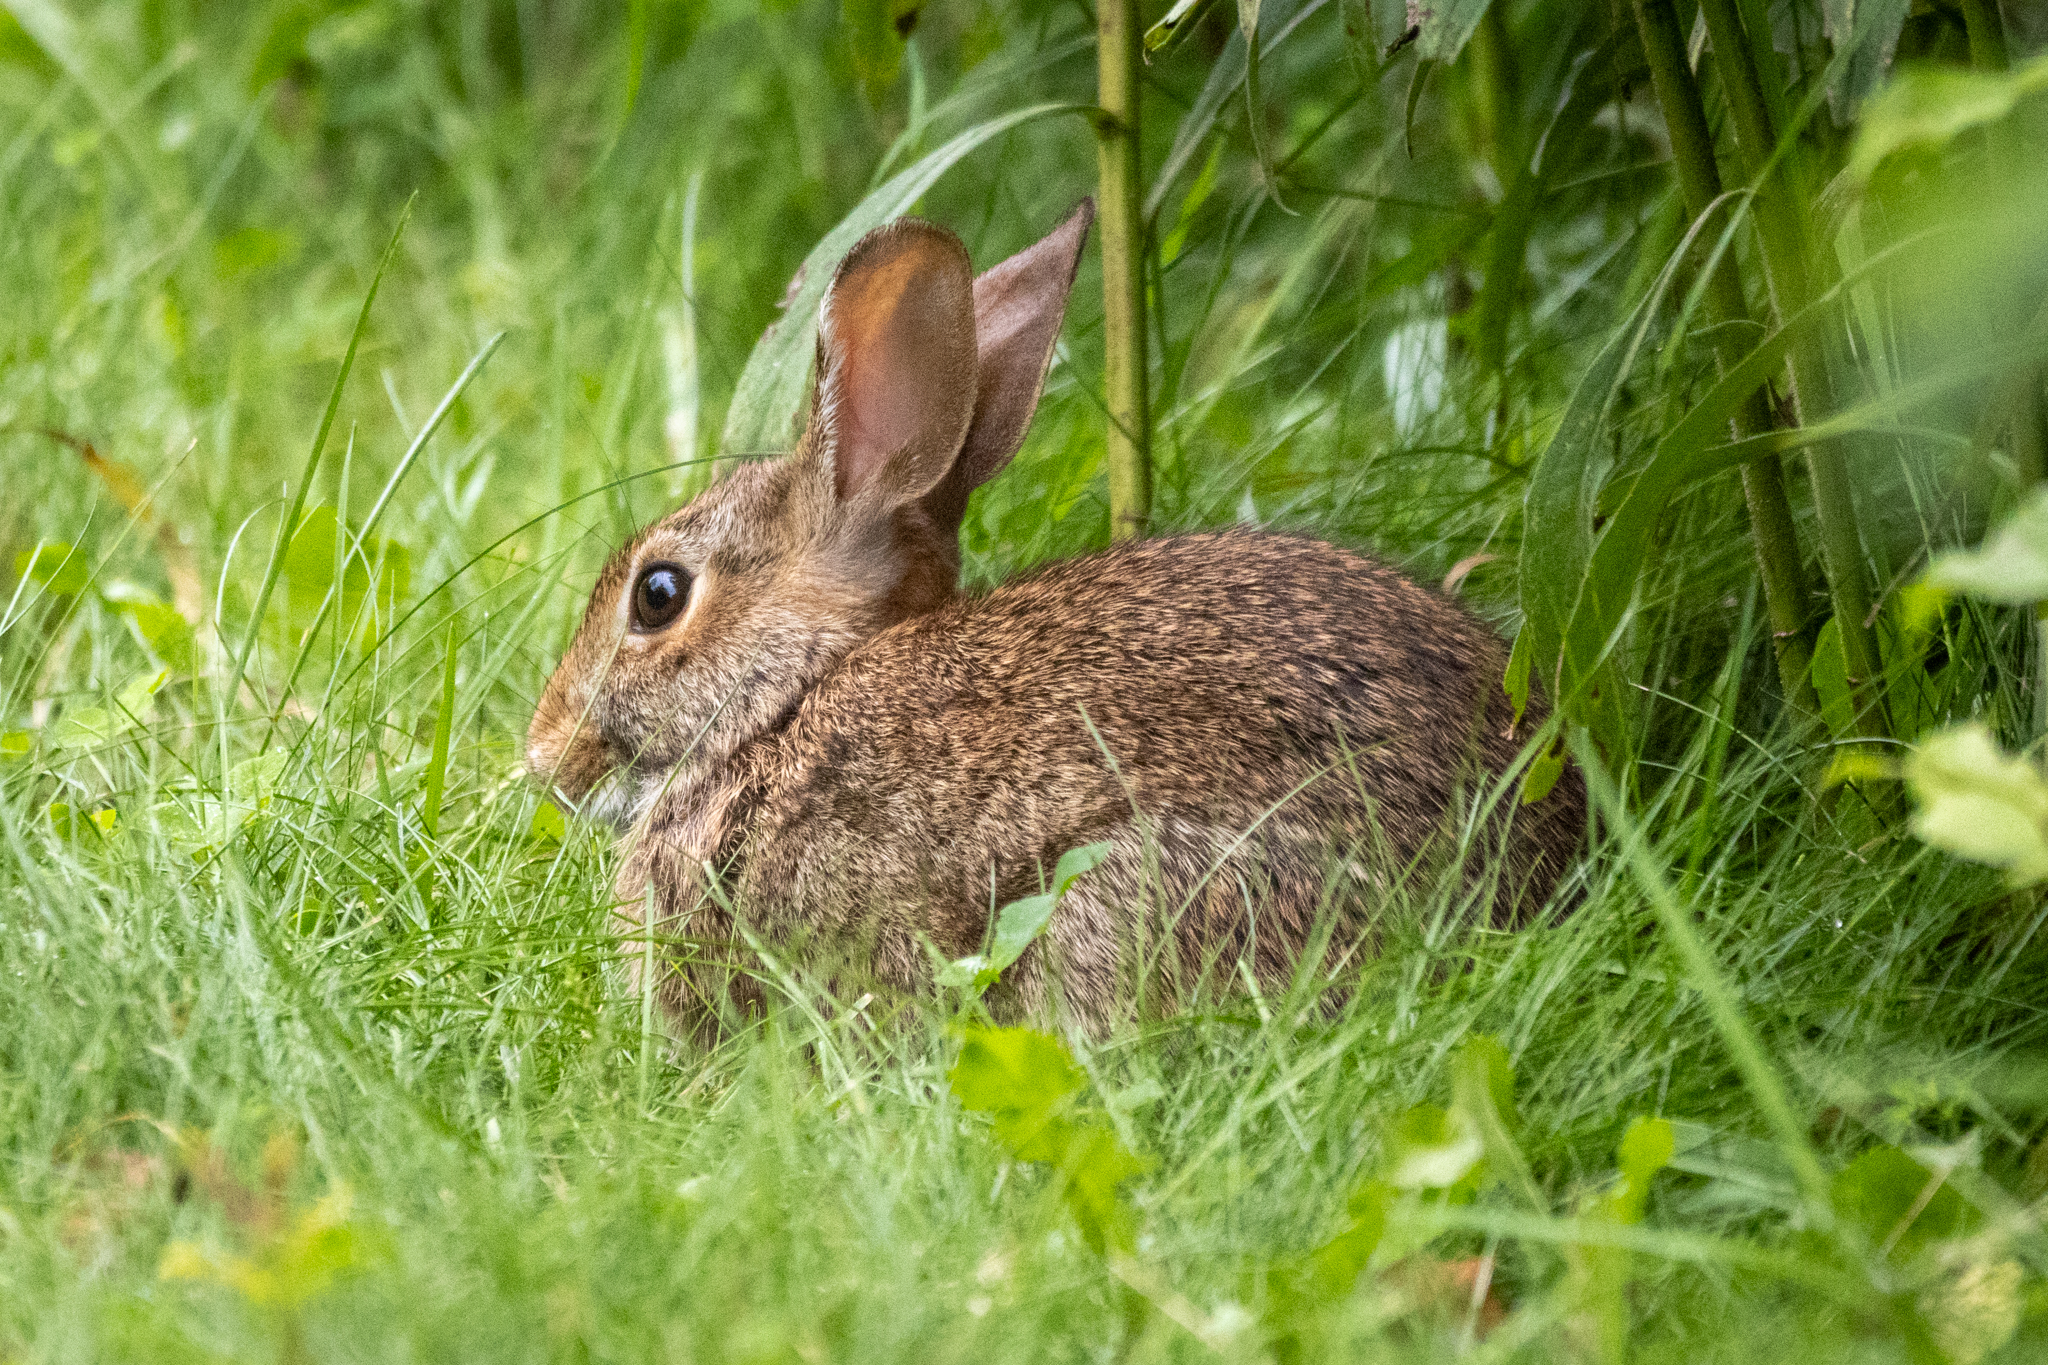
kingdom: Animalia
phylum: Chordata
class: Mammalia
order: Lagomorpha
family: Leporidae
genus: Sylvilagus
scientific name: Sylvilagus floridanus
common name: Eastern cottontail
